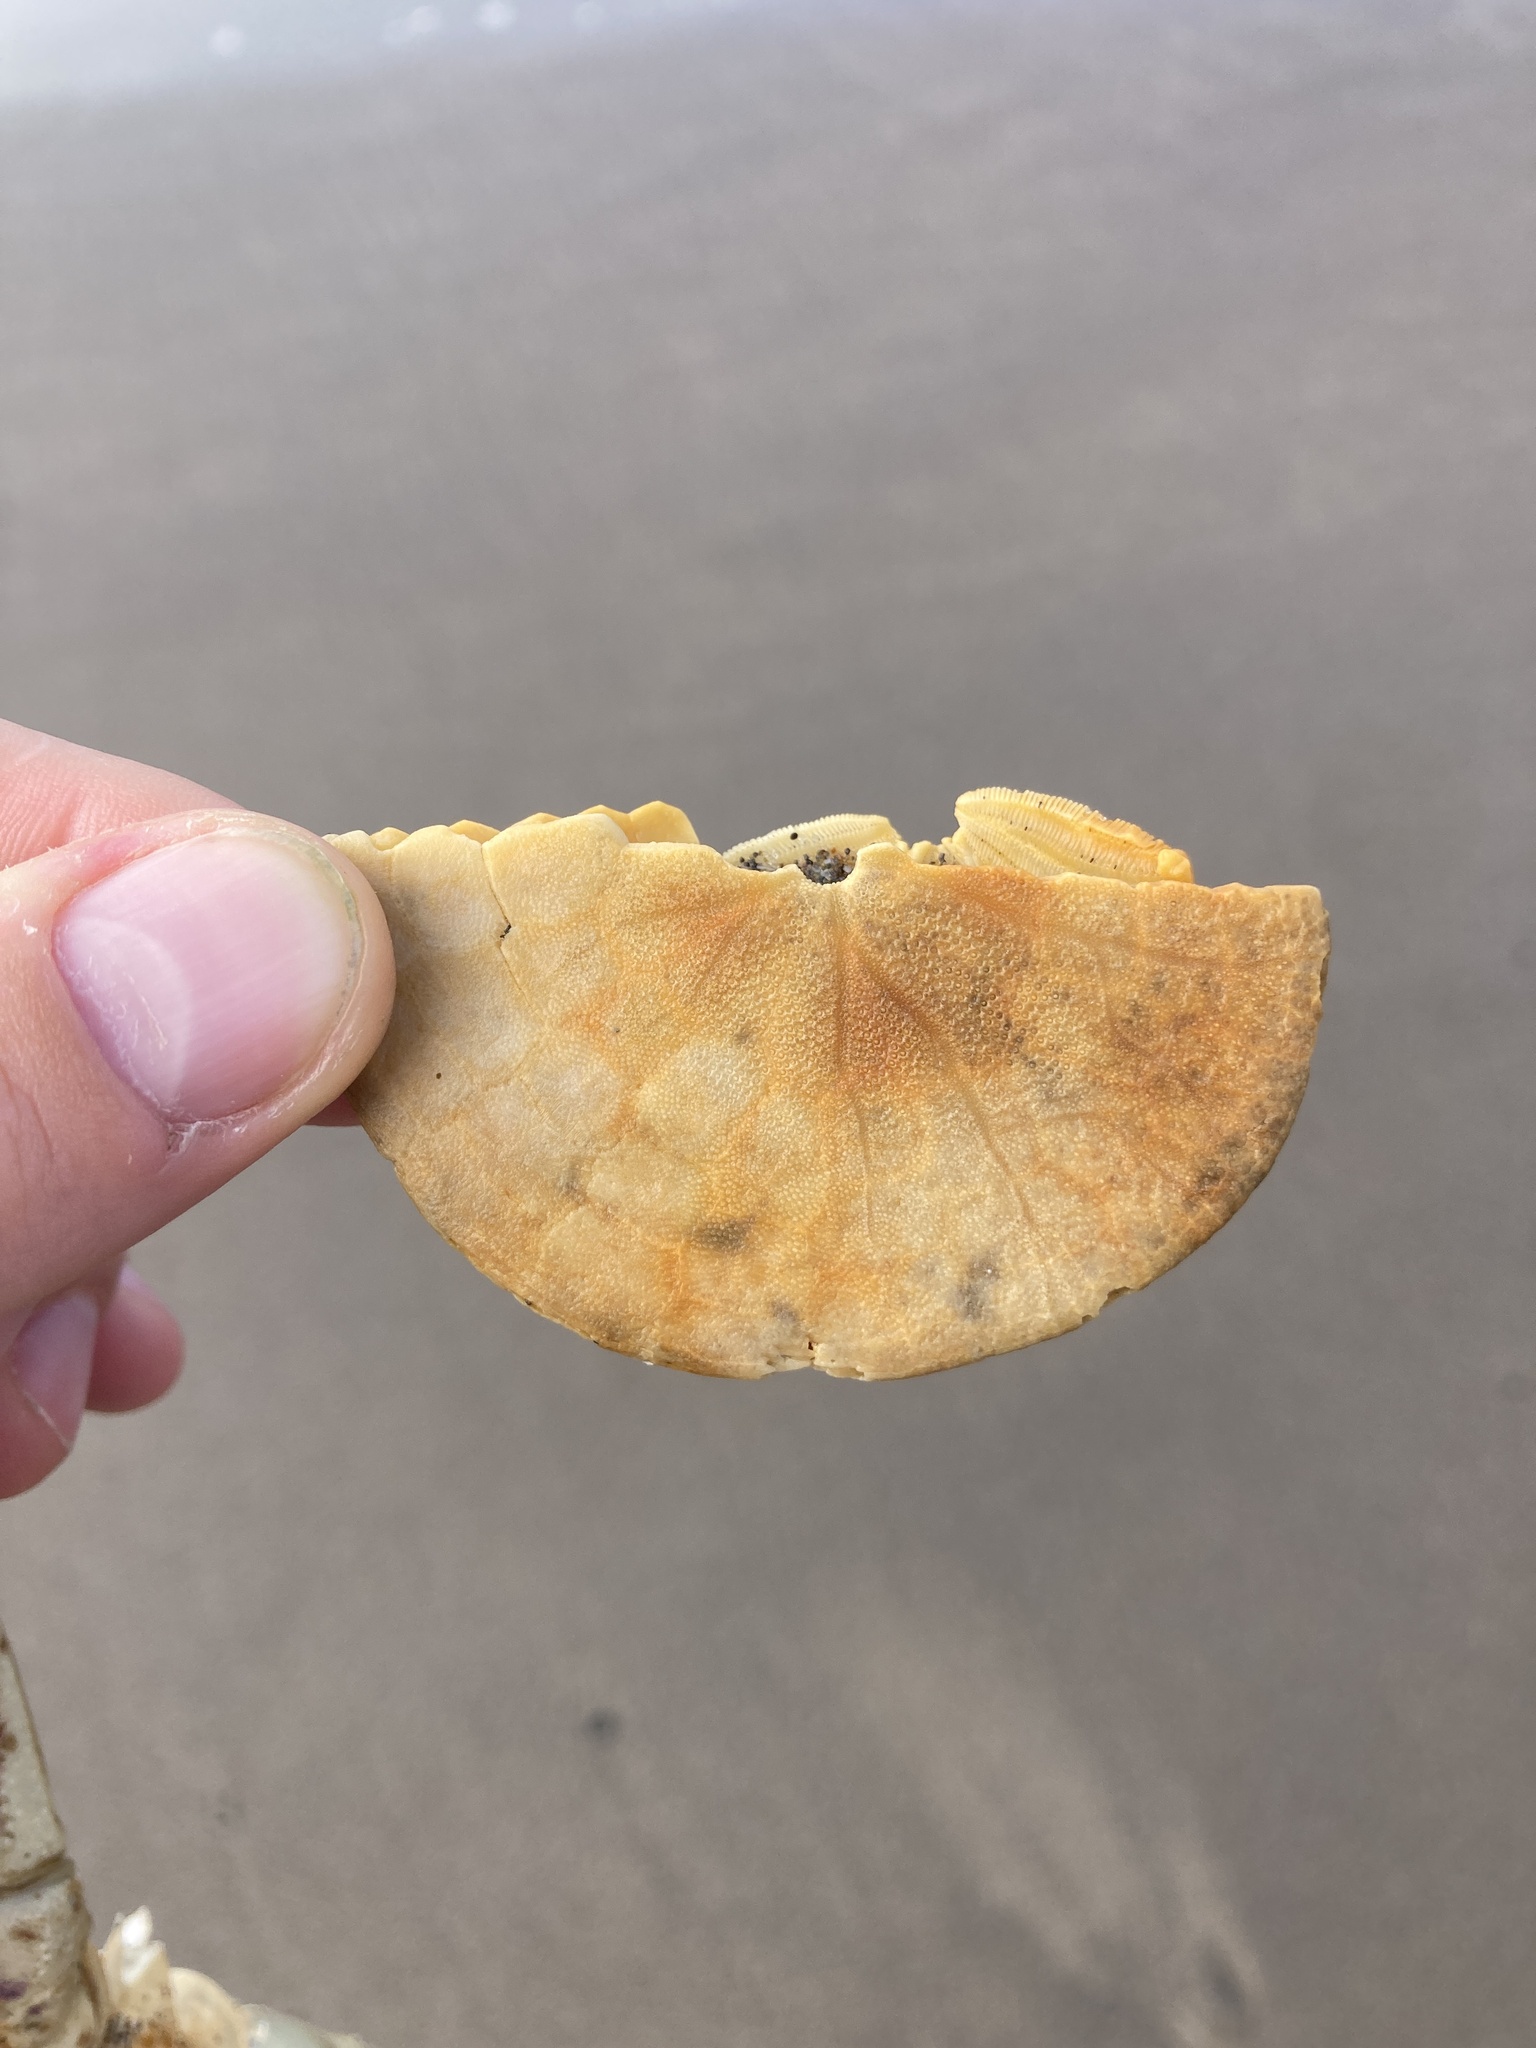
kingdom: Animalia
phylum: Echinodermata
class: Echinoidea
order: Echinolampadacea
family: Dendrasteridae
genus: Dendraster
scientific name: Dendraster excentricus
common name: Eccentric sand dollar sea urchin
